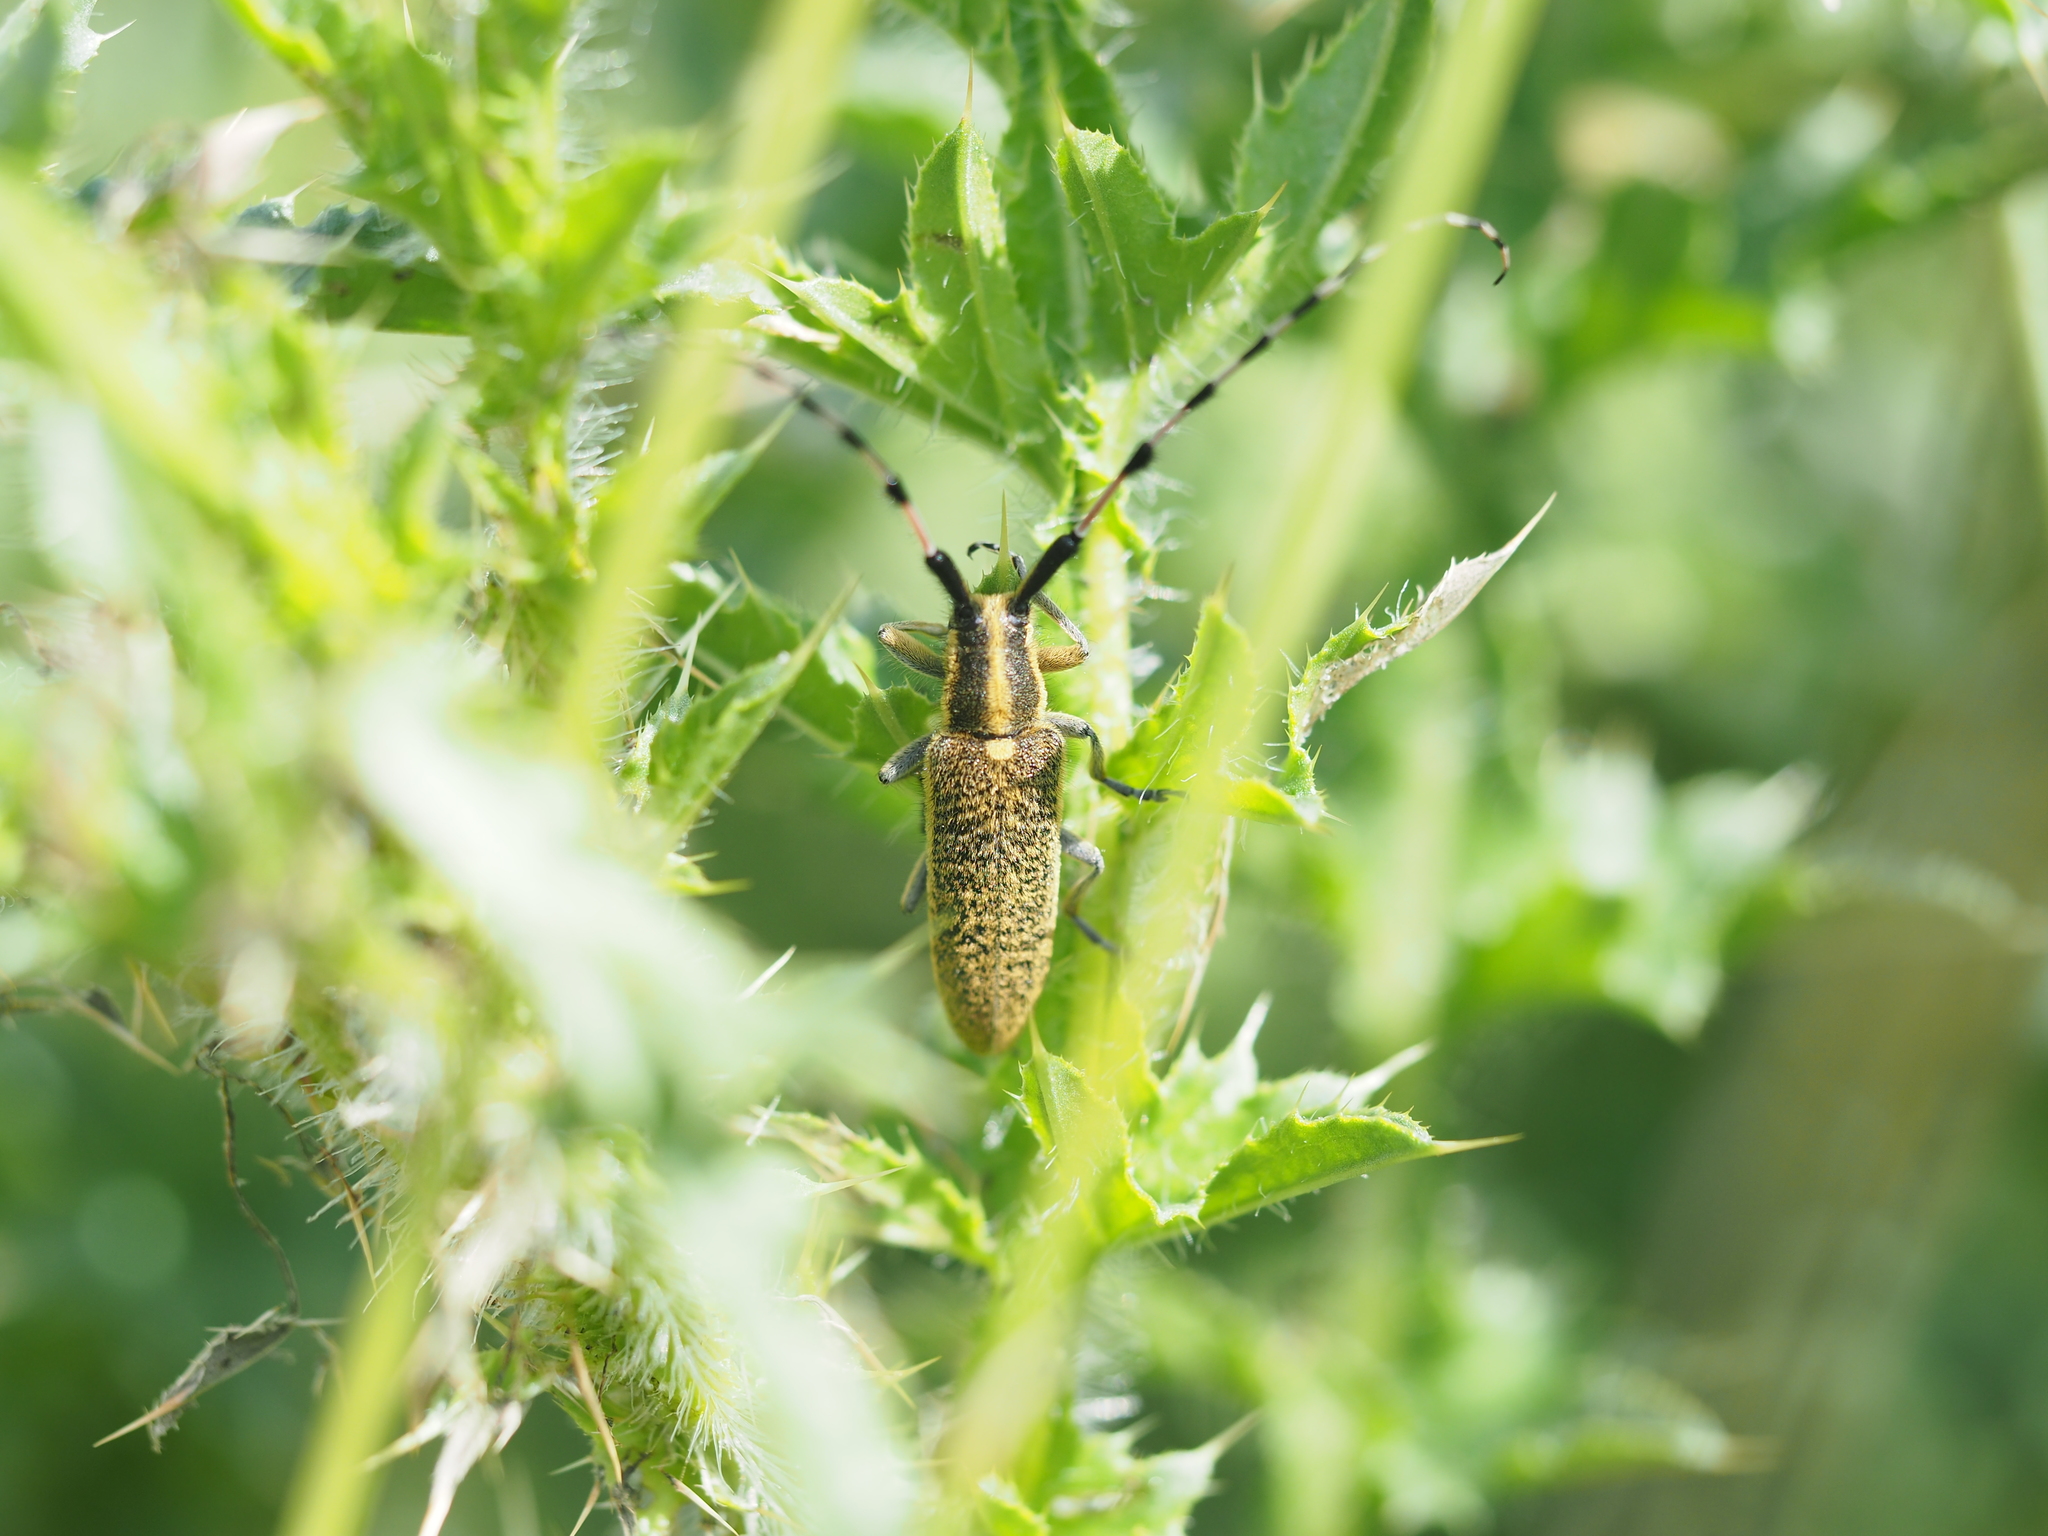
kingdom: Animalia
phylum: Arthropoda
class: Insecta
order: Coleoptera
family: Cerambycidae
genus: Agapanthia
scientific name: Agapanthia dahlii
